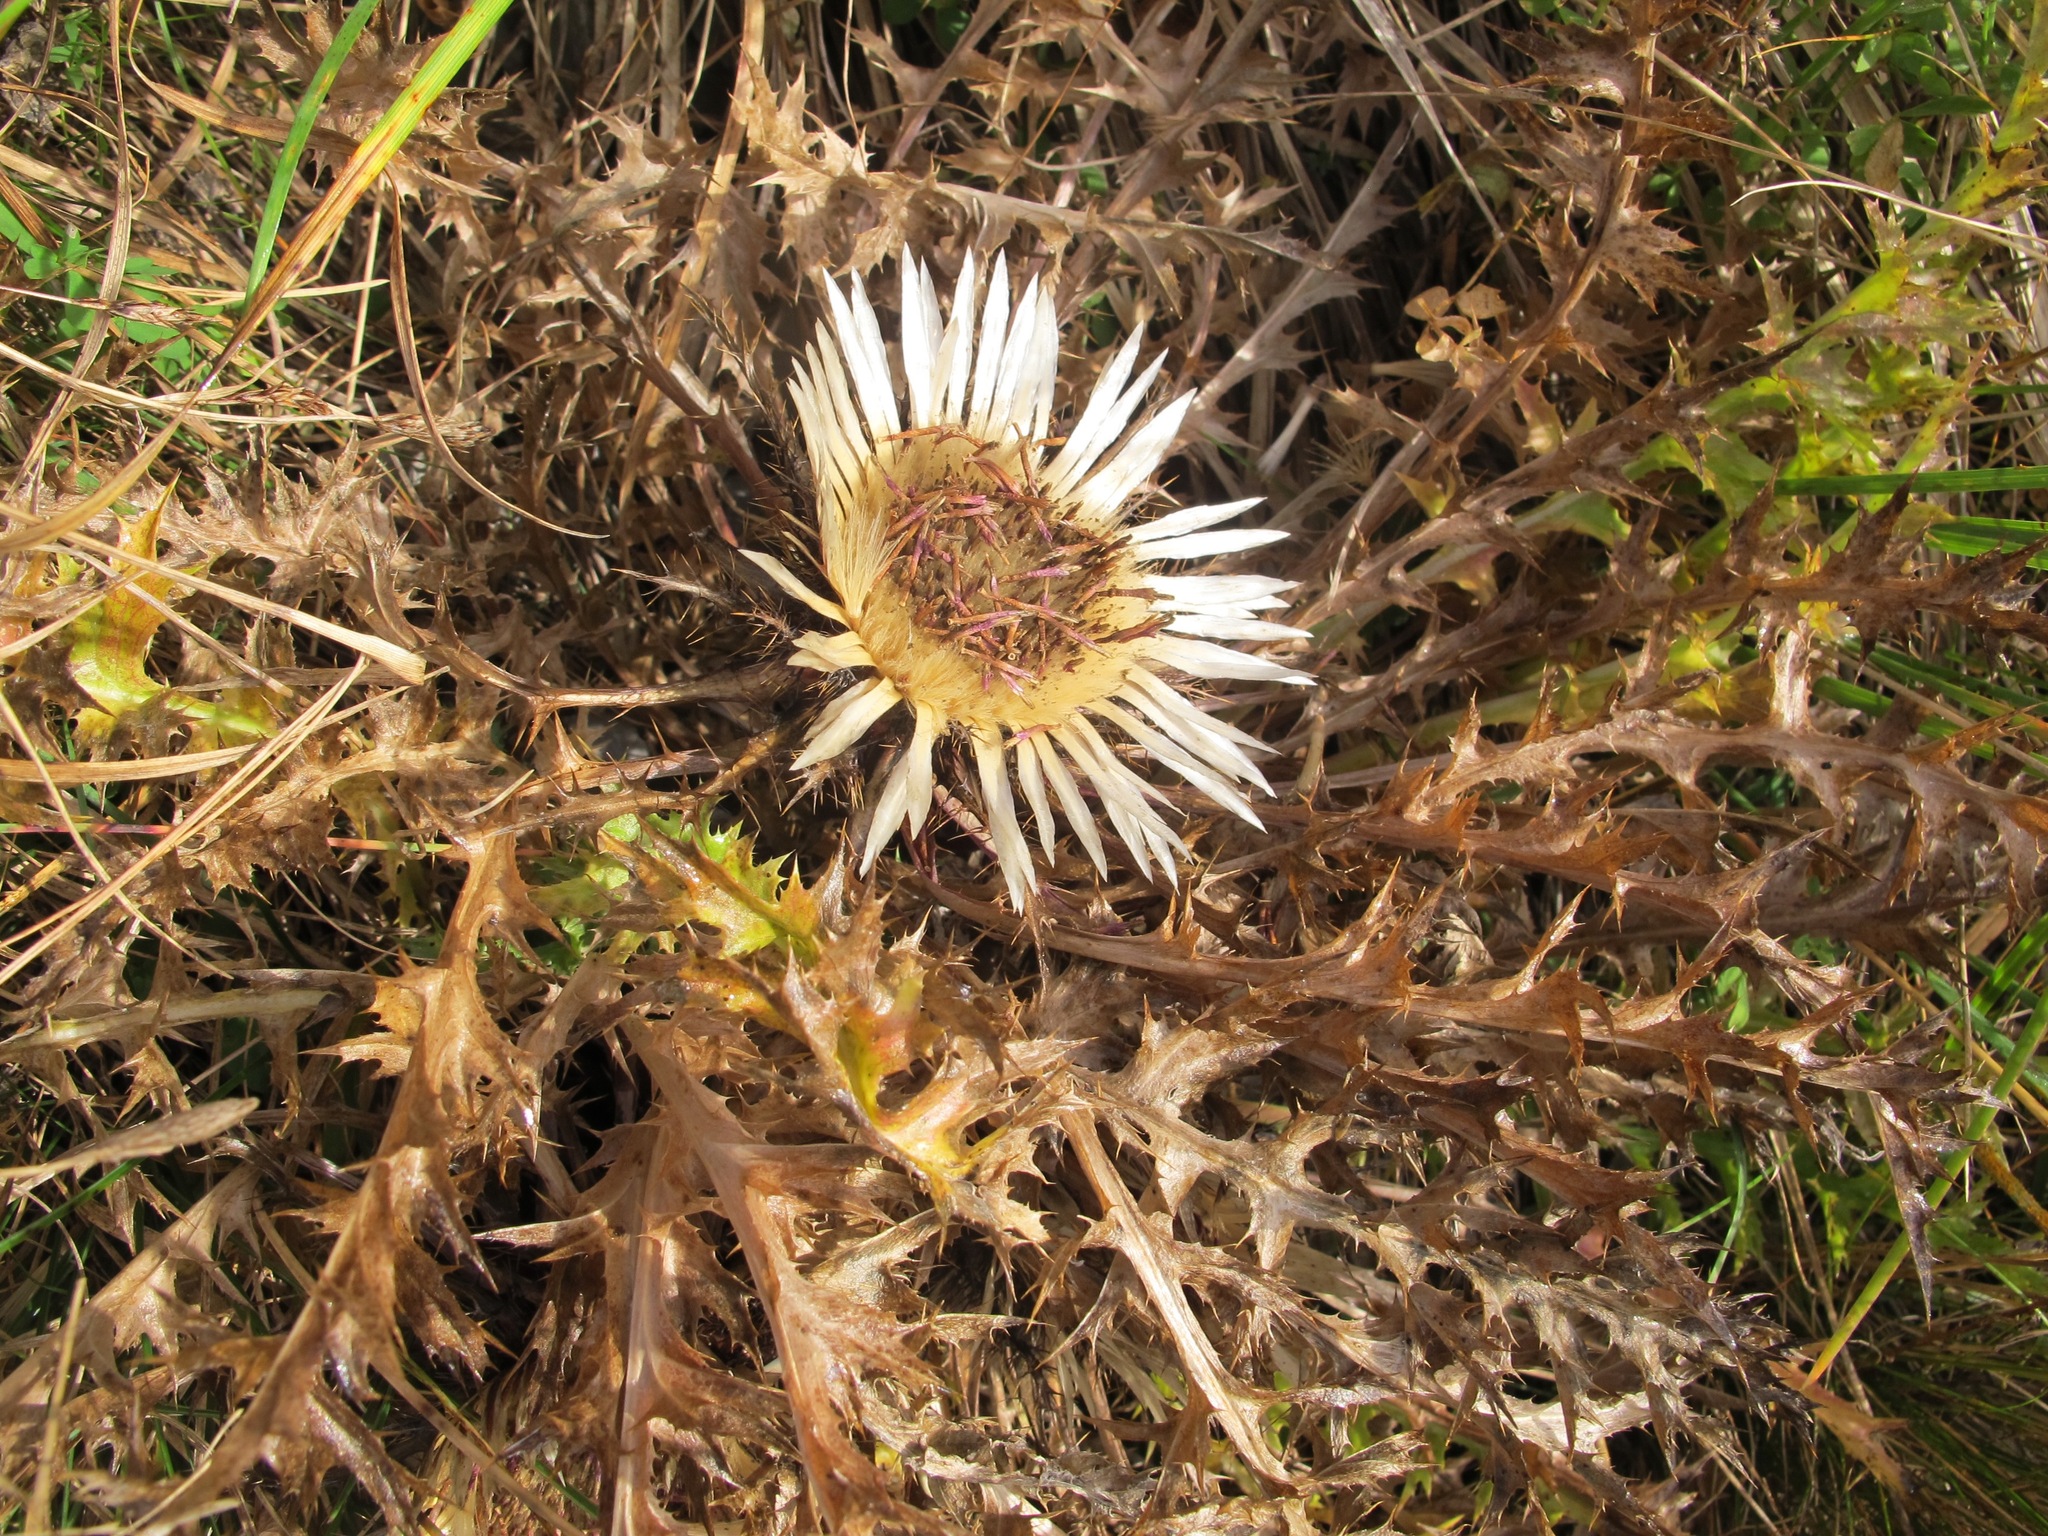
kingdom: Plantae
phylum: Tracheophyta
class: Magnoliopsida
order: Asterales
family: Asteraceae
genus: Carlina
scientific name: Carlina acaulis
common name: Stemless carline thistle
